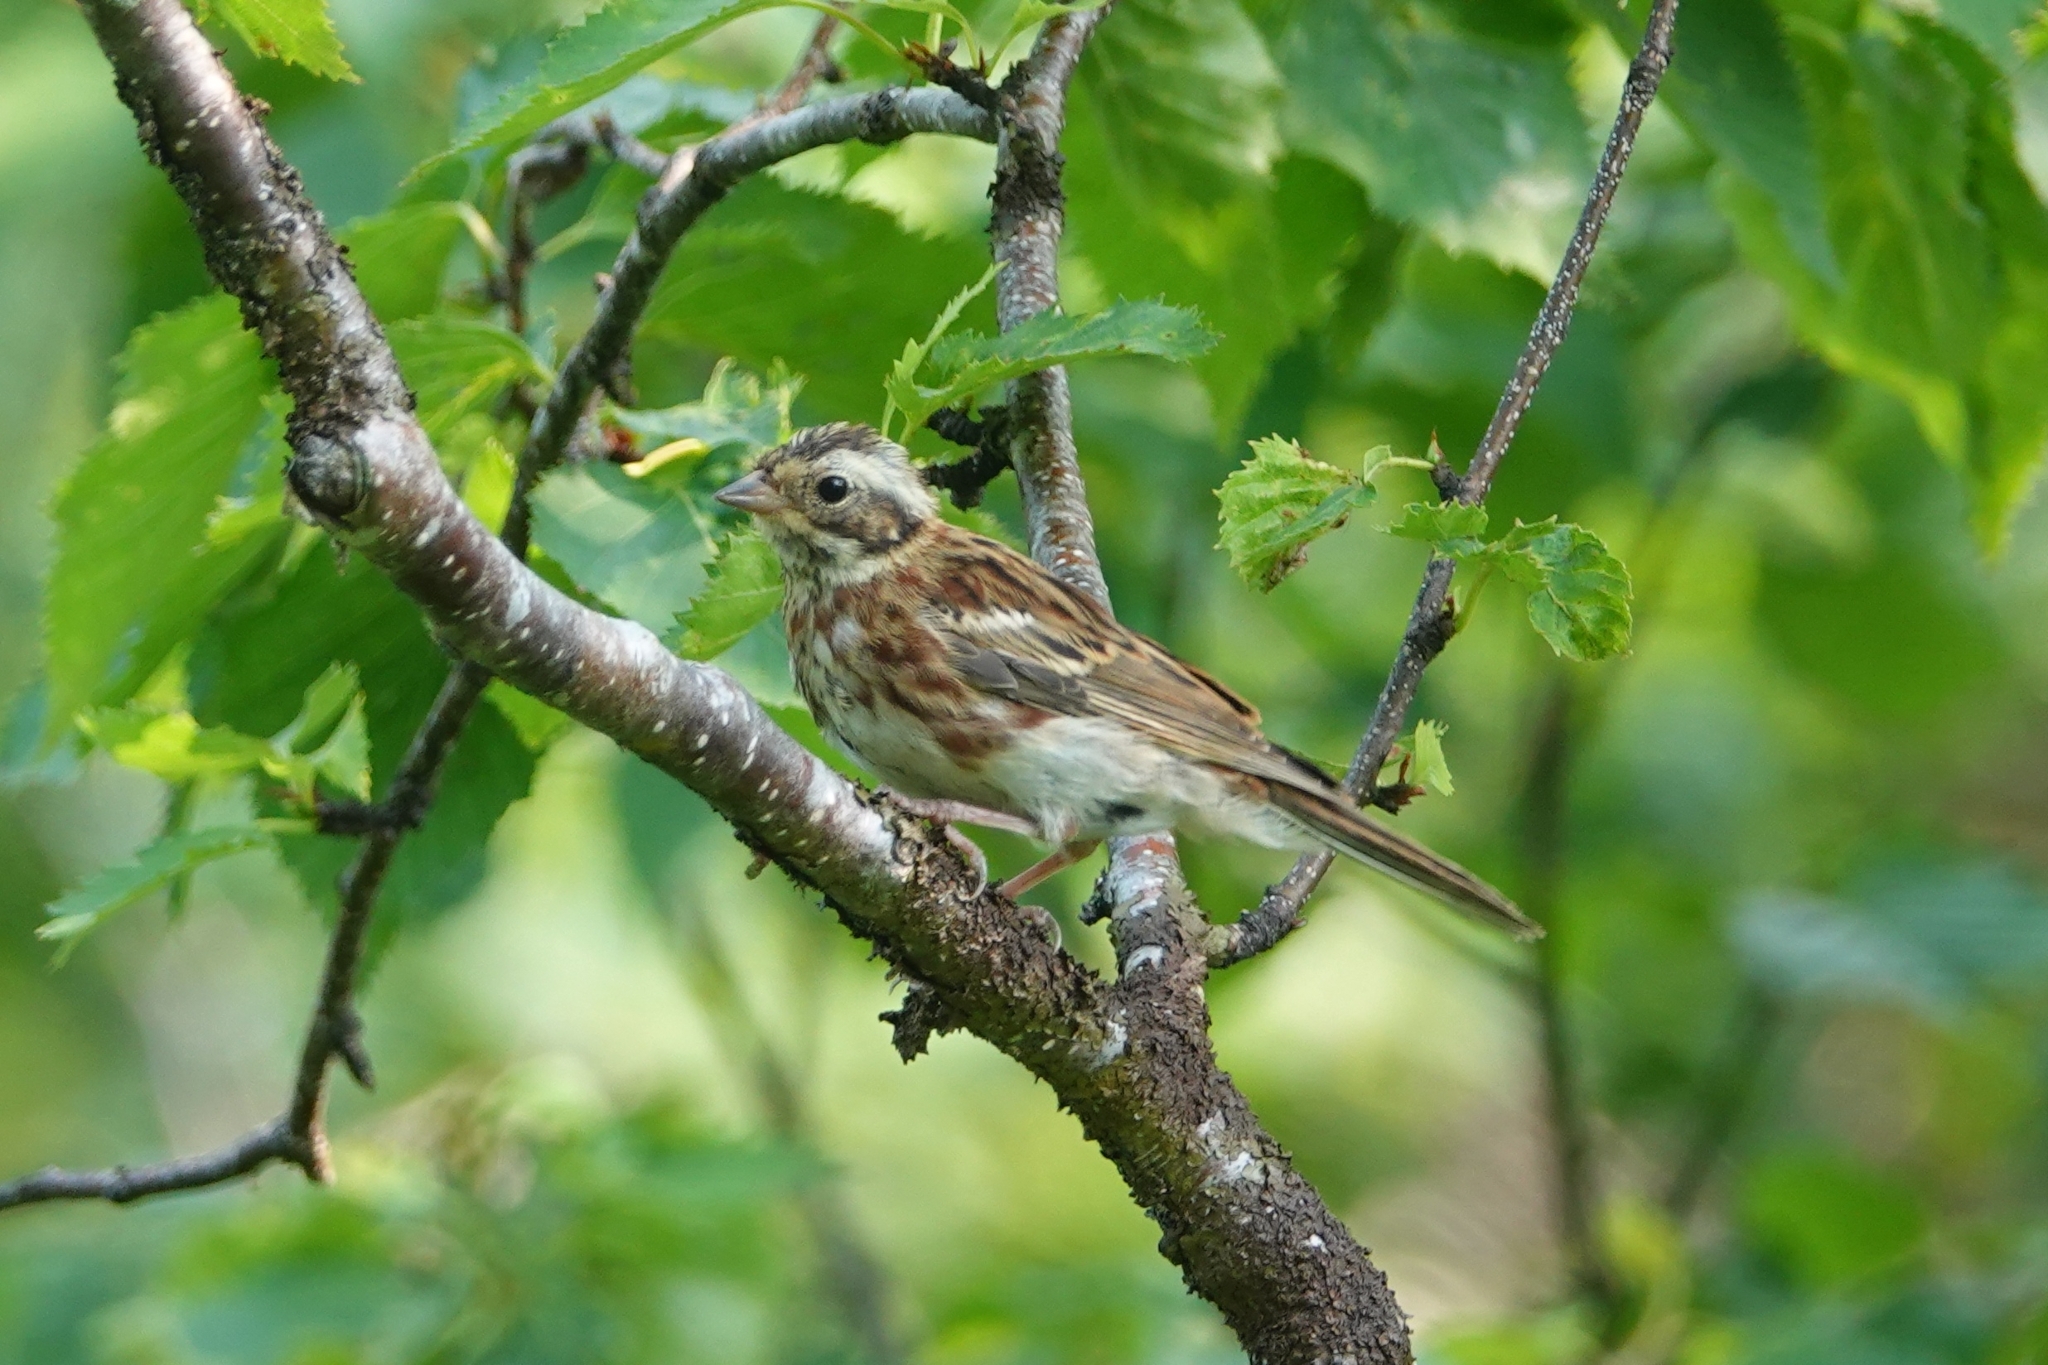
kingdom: Animalia
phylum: Chordata
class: Aves
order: Passeriformes
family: Emberizidae
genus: Emberiza
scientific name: Emberiza rustica
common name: Rustic bunting
